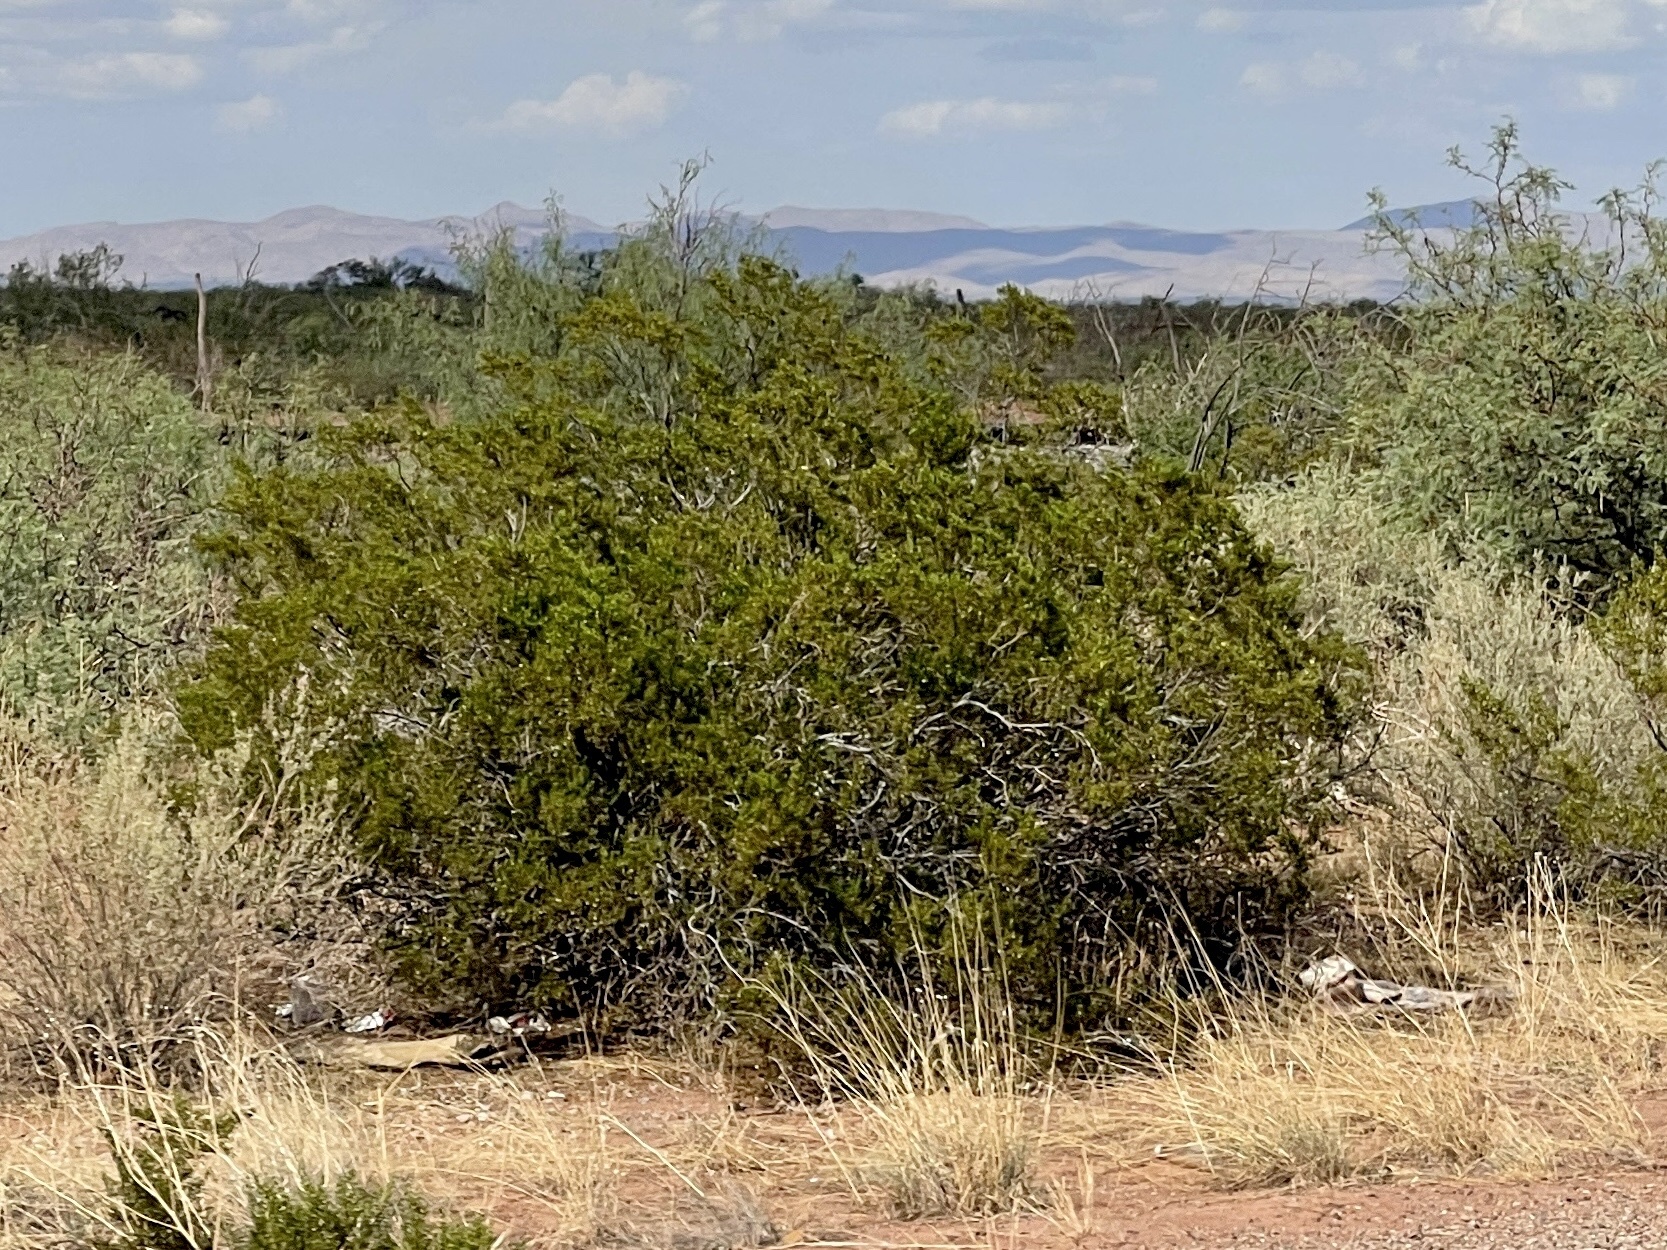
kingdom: Plantae
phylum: Tracheophyta
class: Magnoliopsida
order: Zygophyllales
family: Zygophyllaceae
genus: Larrea
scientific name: Larrea tridentata
